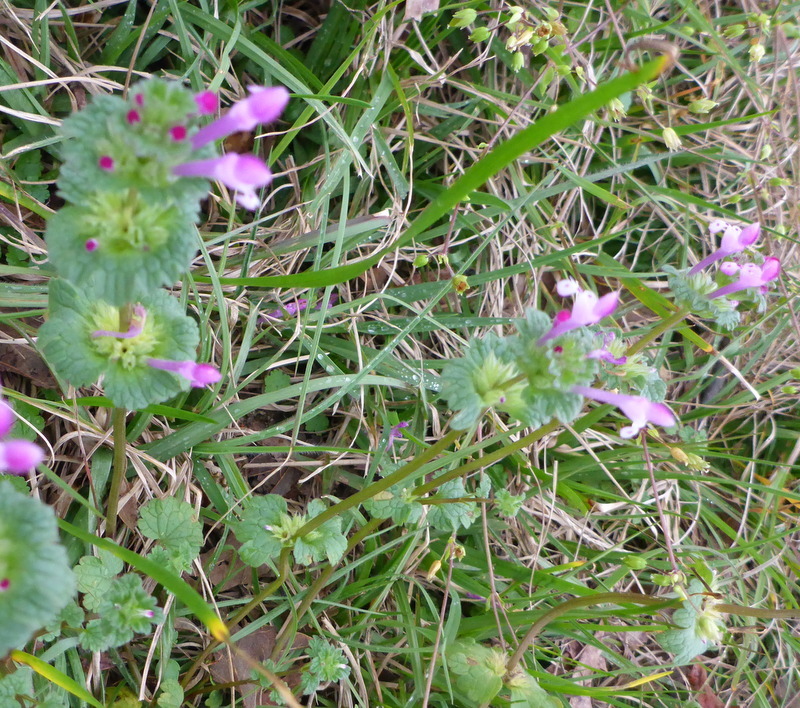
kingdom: Plantae
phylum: Tracheophyta
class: Magnoliopsida
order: Lamiales
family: Lamiaceae
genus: Lamium
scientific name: Lamium amplexicaule
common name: Henbit dead-nettle
